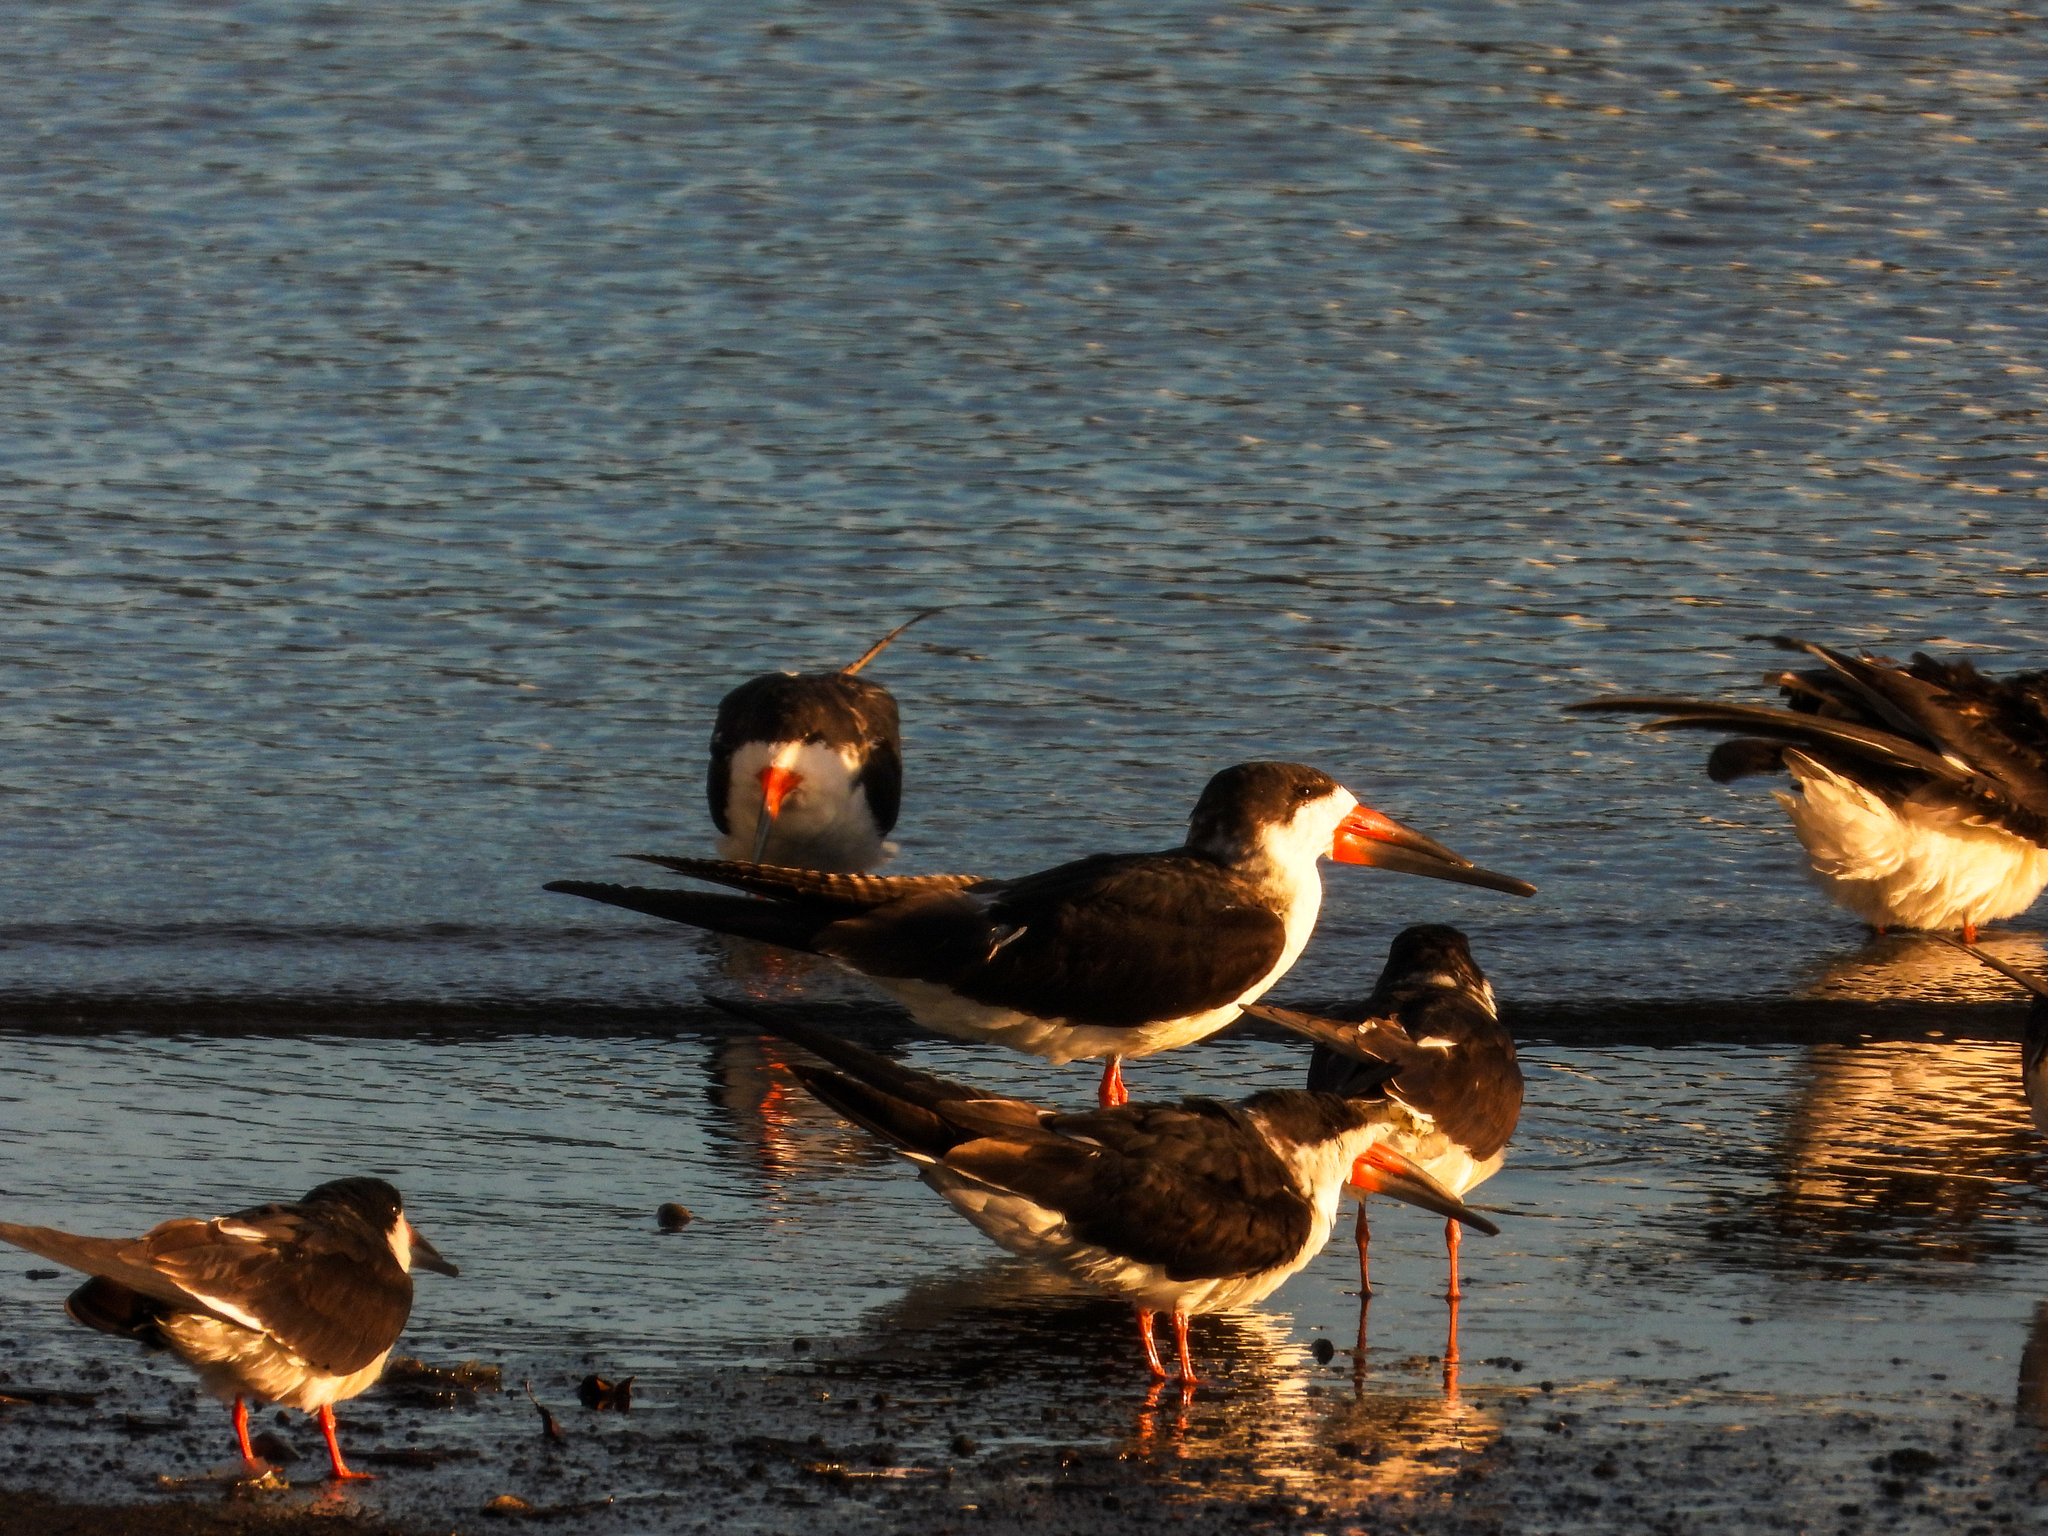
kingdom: Animalia
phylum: Chordata
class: Aves
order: Charadriiformes
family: Laridae
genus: Rynchops
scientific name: Rynchops niger
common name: Black skimmer
